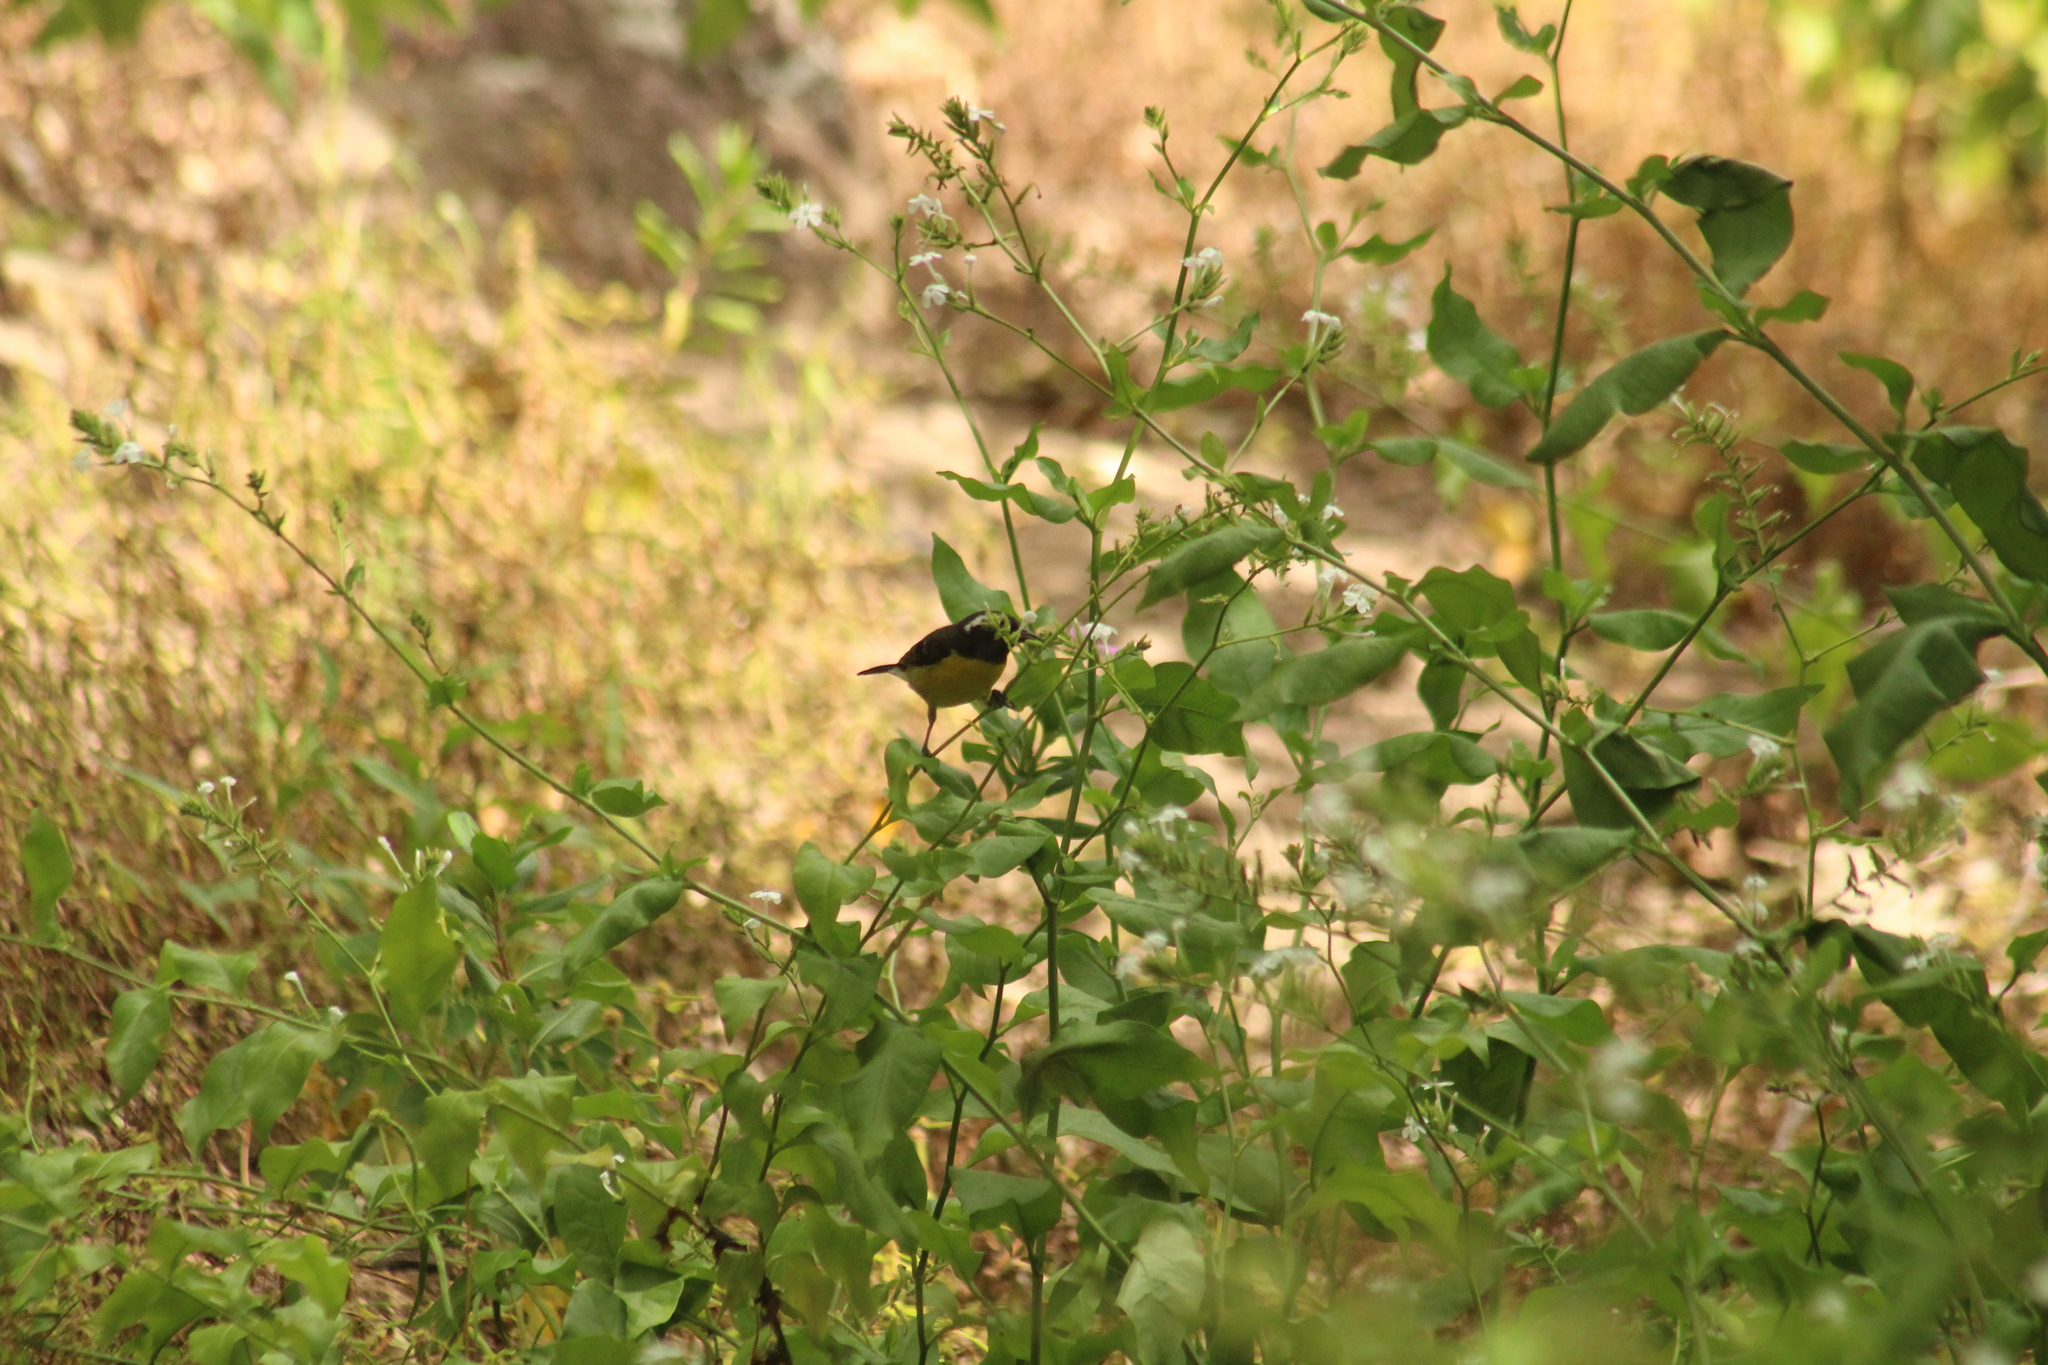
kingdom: Animalia
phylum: Chordata
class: Aves
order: Passeriformes
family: Thraupidae
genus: Coereba
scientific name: Coereba flaveola
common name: Bananaquit
